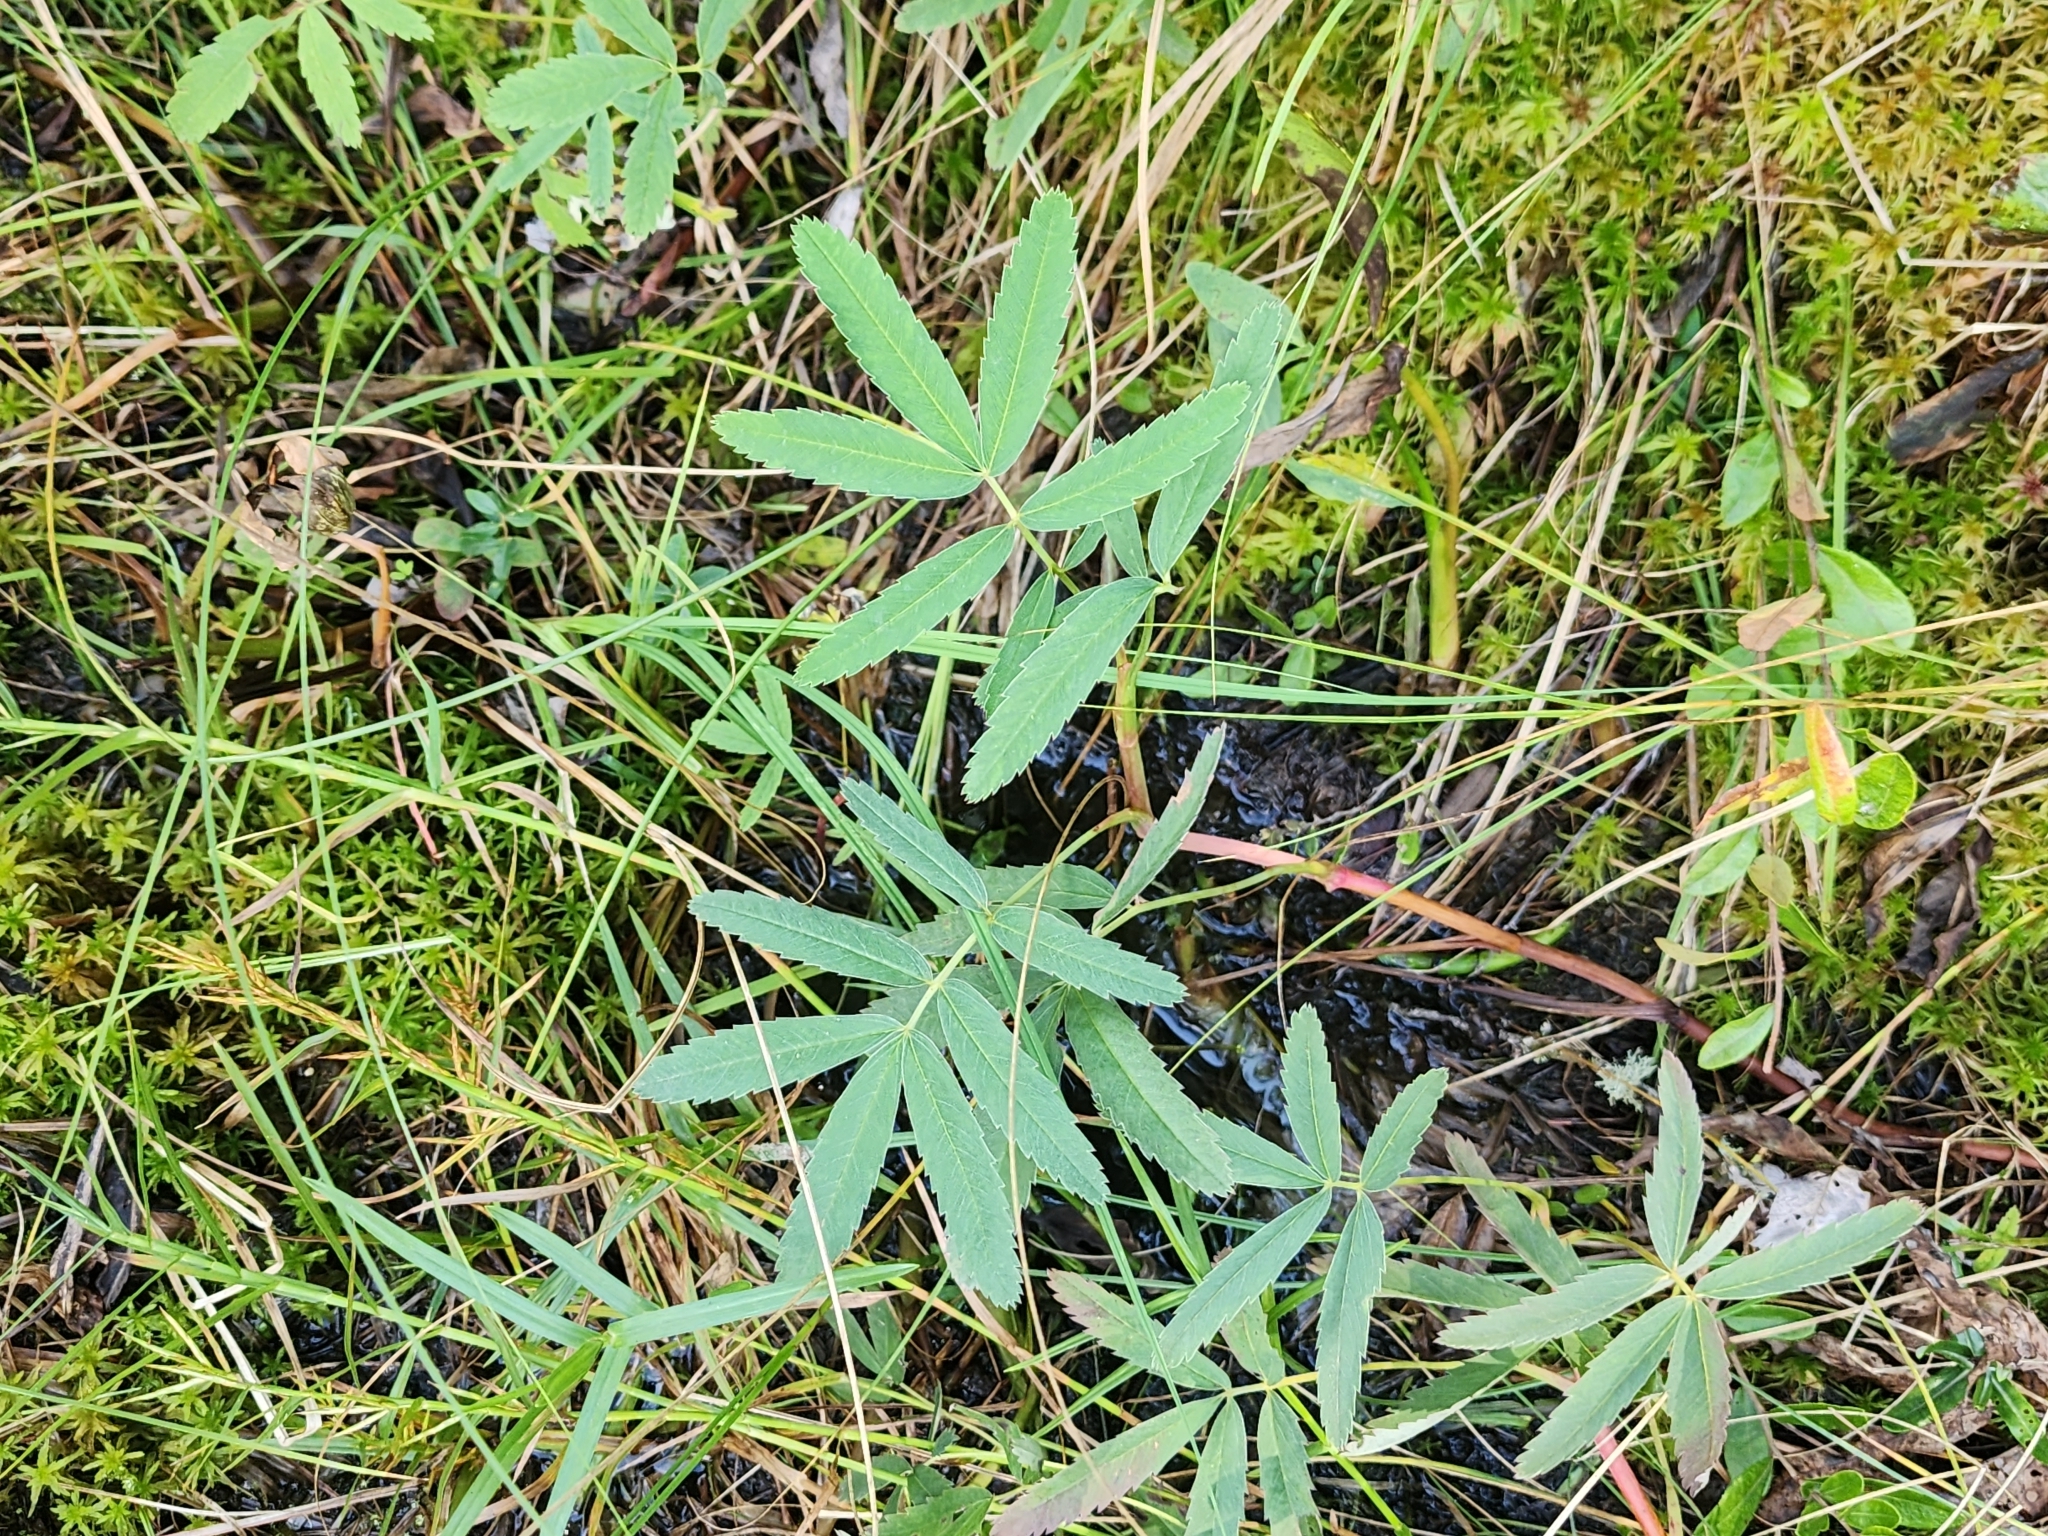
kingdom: Plantae
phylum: Tracheophyta
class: Magnoliopsida
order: Rosales
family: Rosaceae
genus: Comarum
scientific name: Comarum palustre
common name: Marsh cinquefoil
